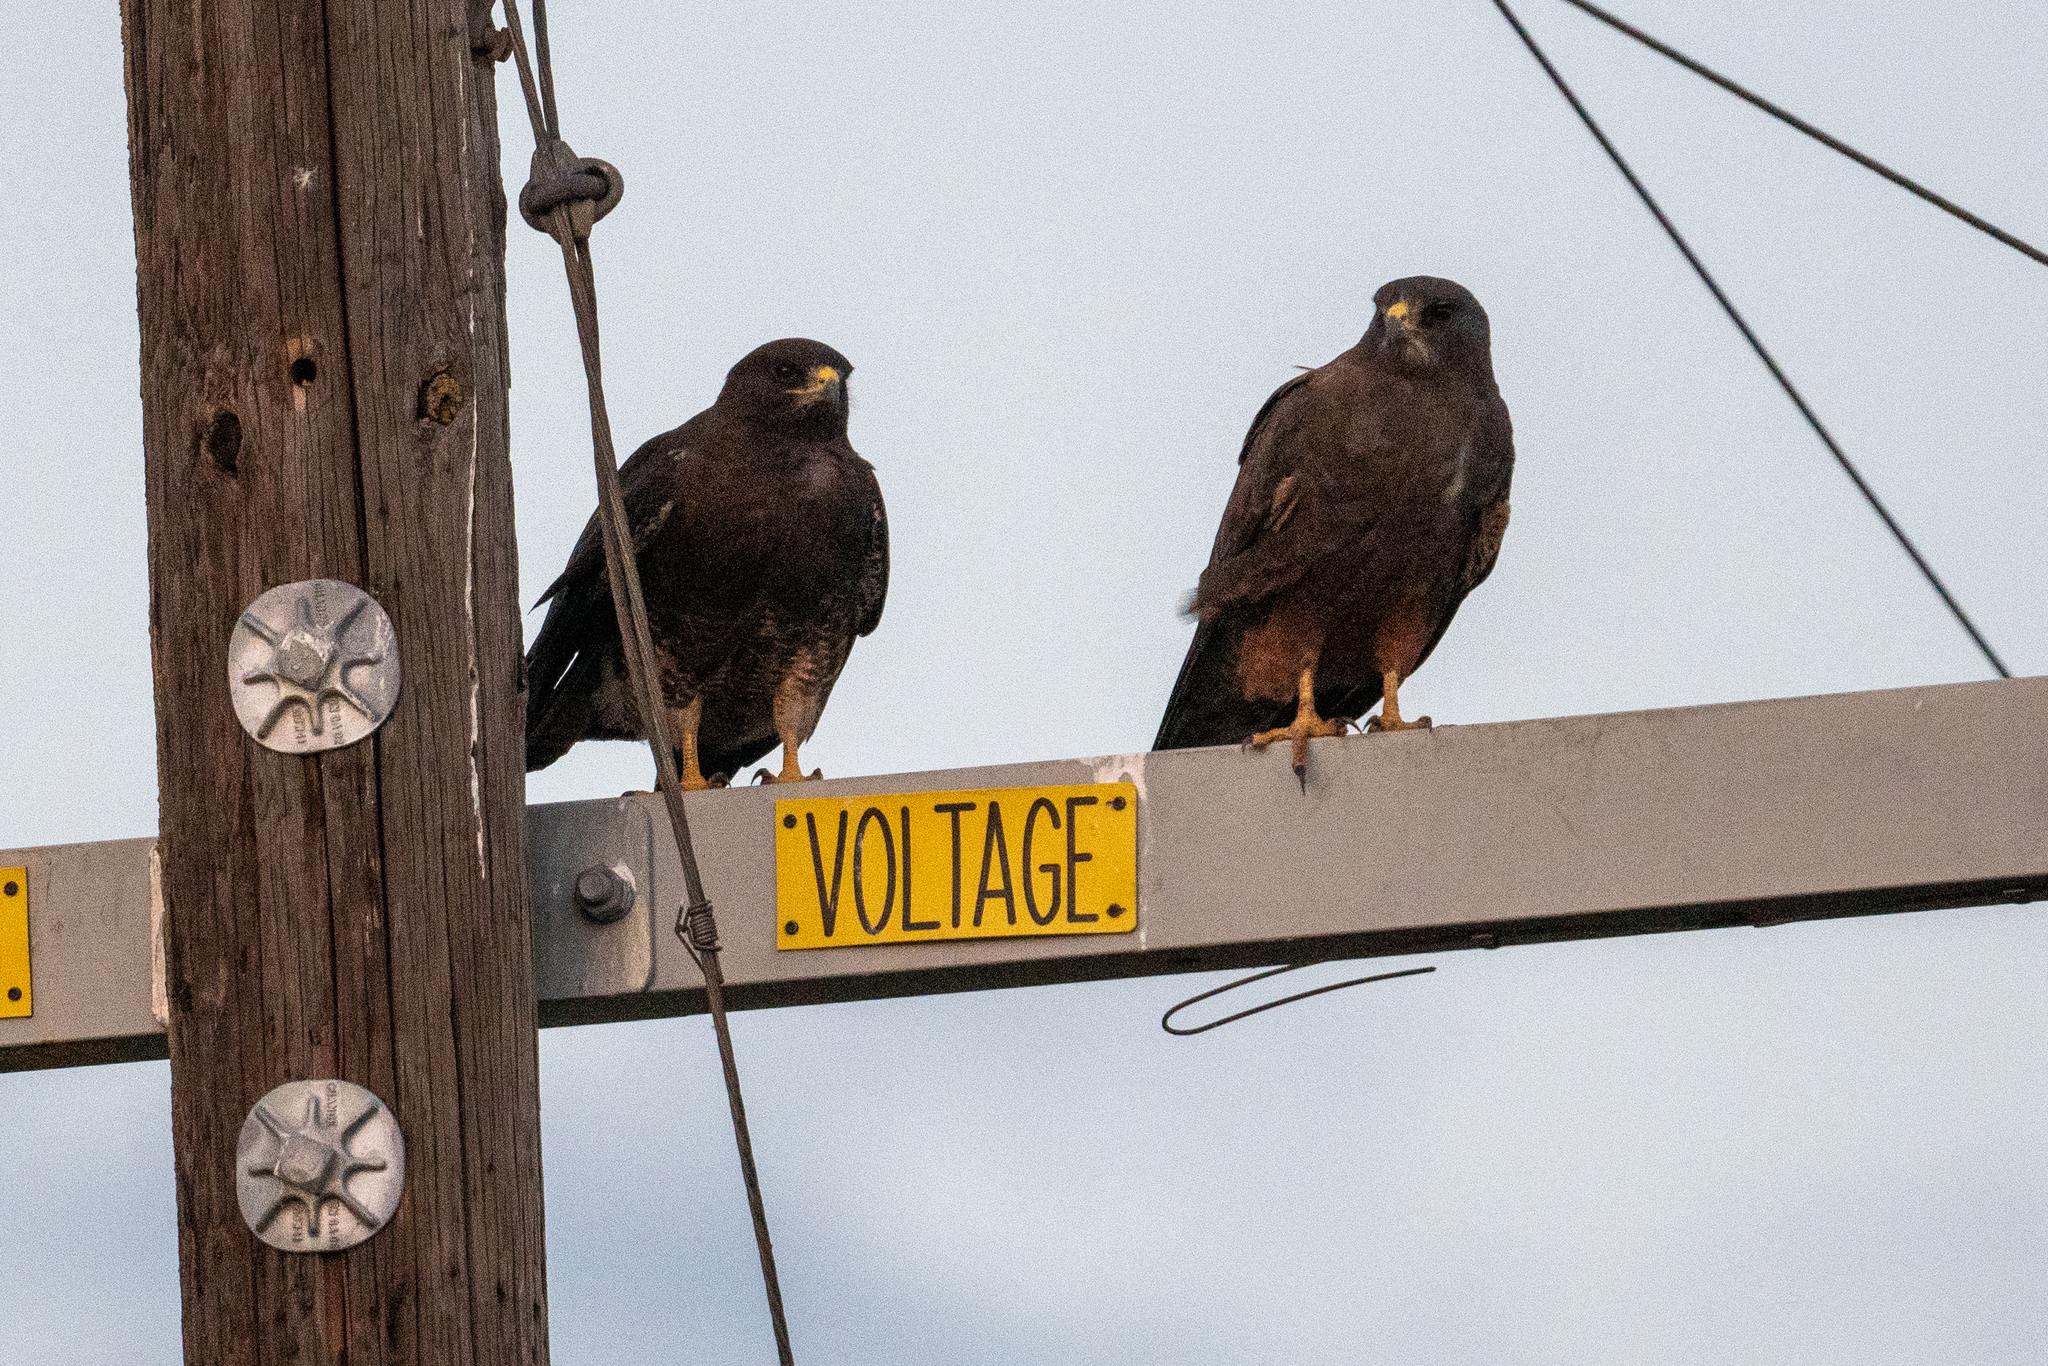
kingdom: Animalia
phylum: Chordata
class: Aves
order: Accipitriformes
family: Accipitridae
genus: Buteo
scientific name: Buteo swainsoni
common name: Swainson's hawk
